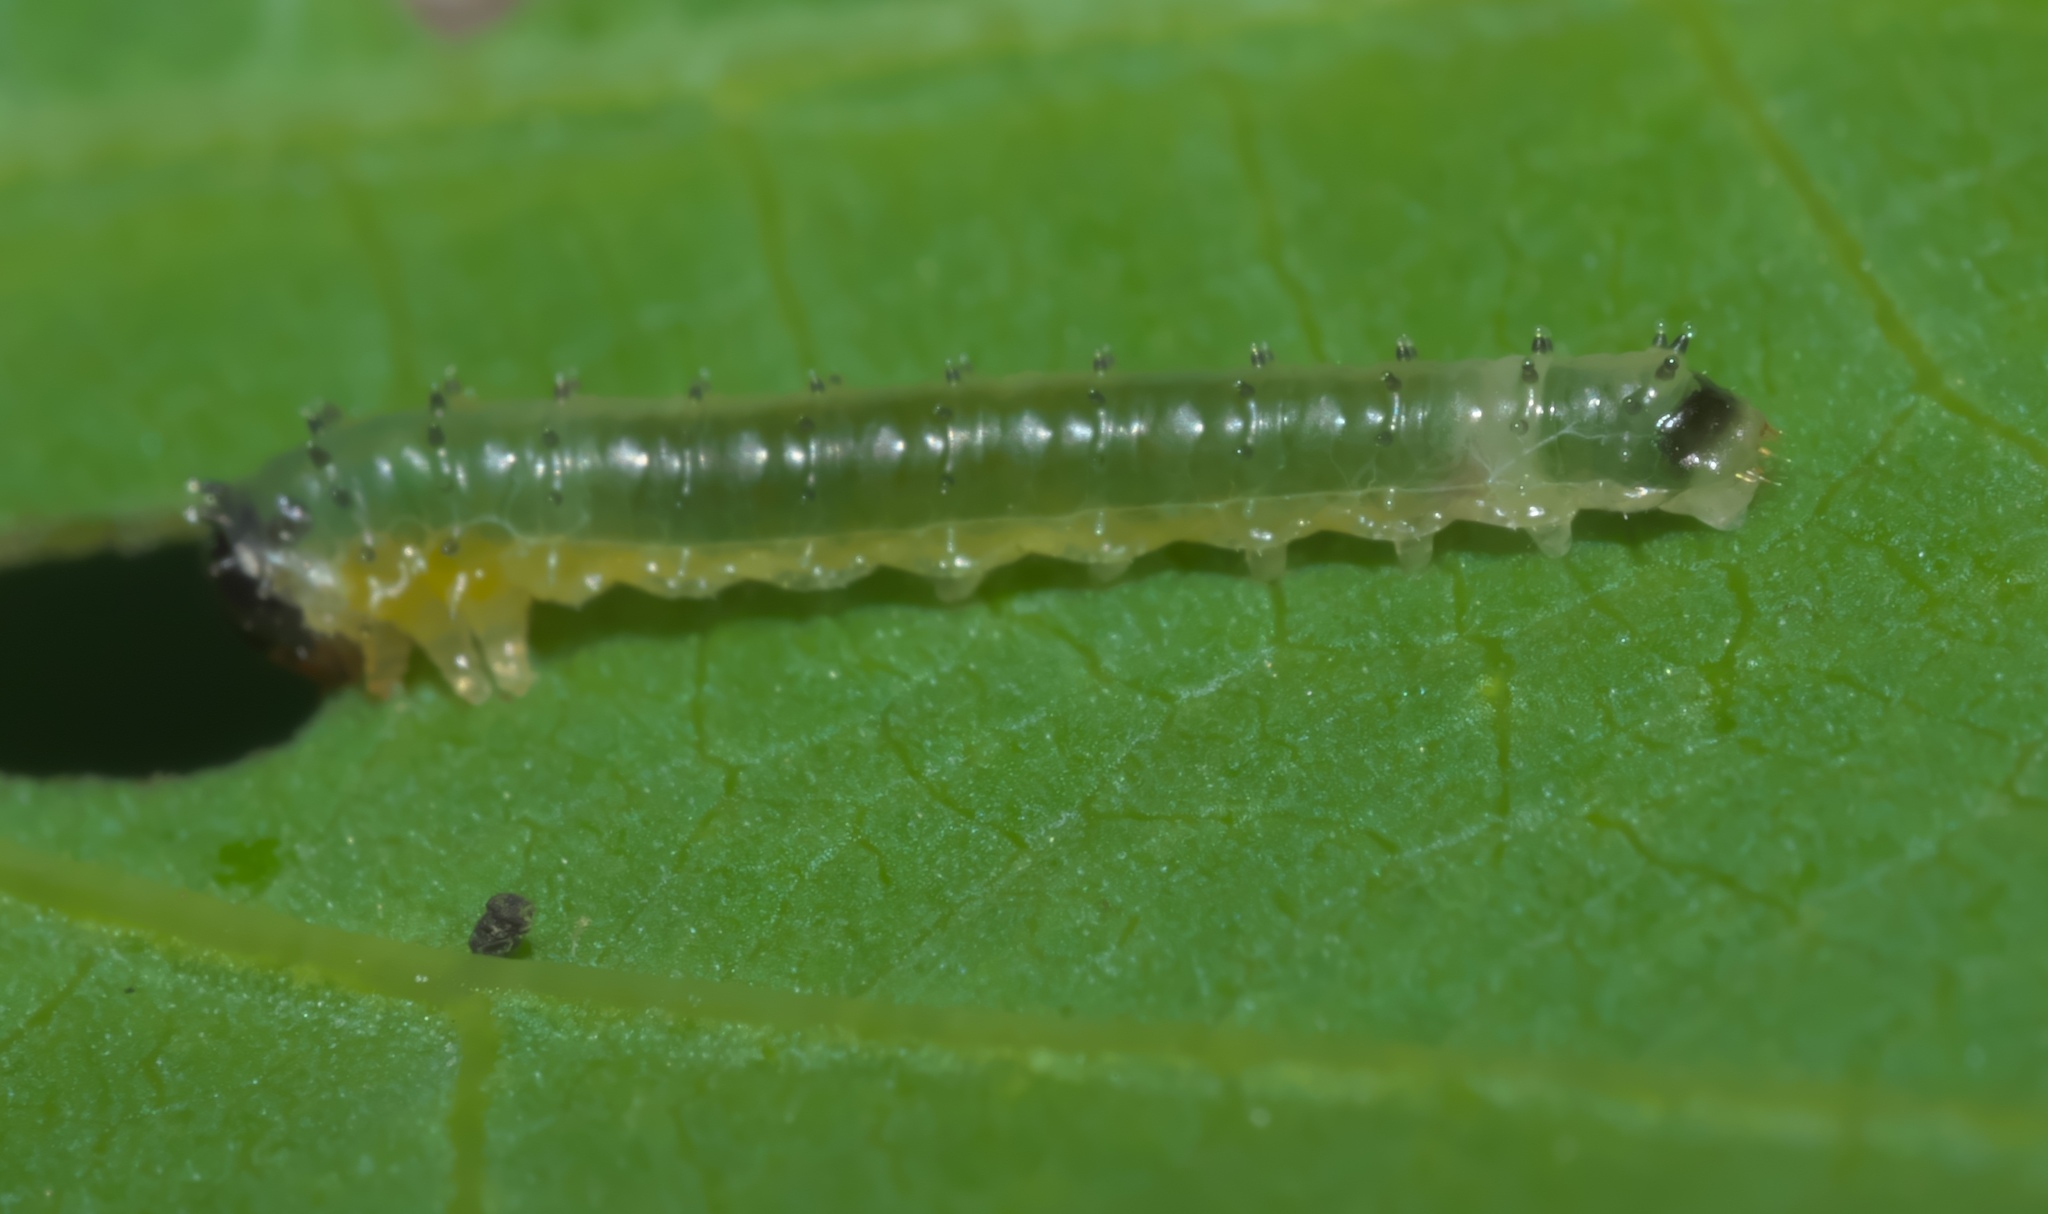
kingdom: Animalia
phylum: Arthropoda
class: Insecta
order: Hymenoptera
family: Argidae
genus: Atomacera
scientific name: Atomacera
